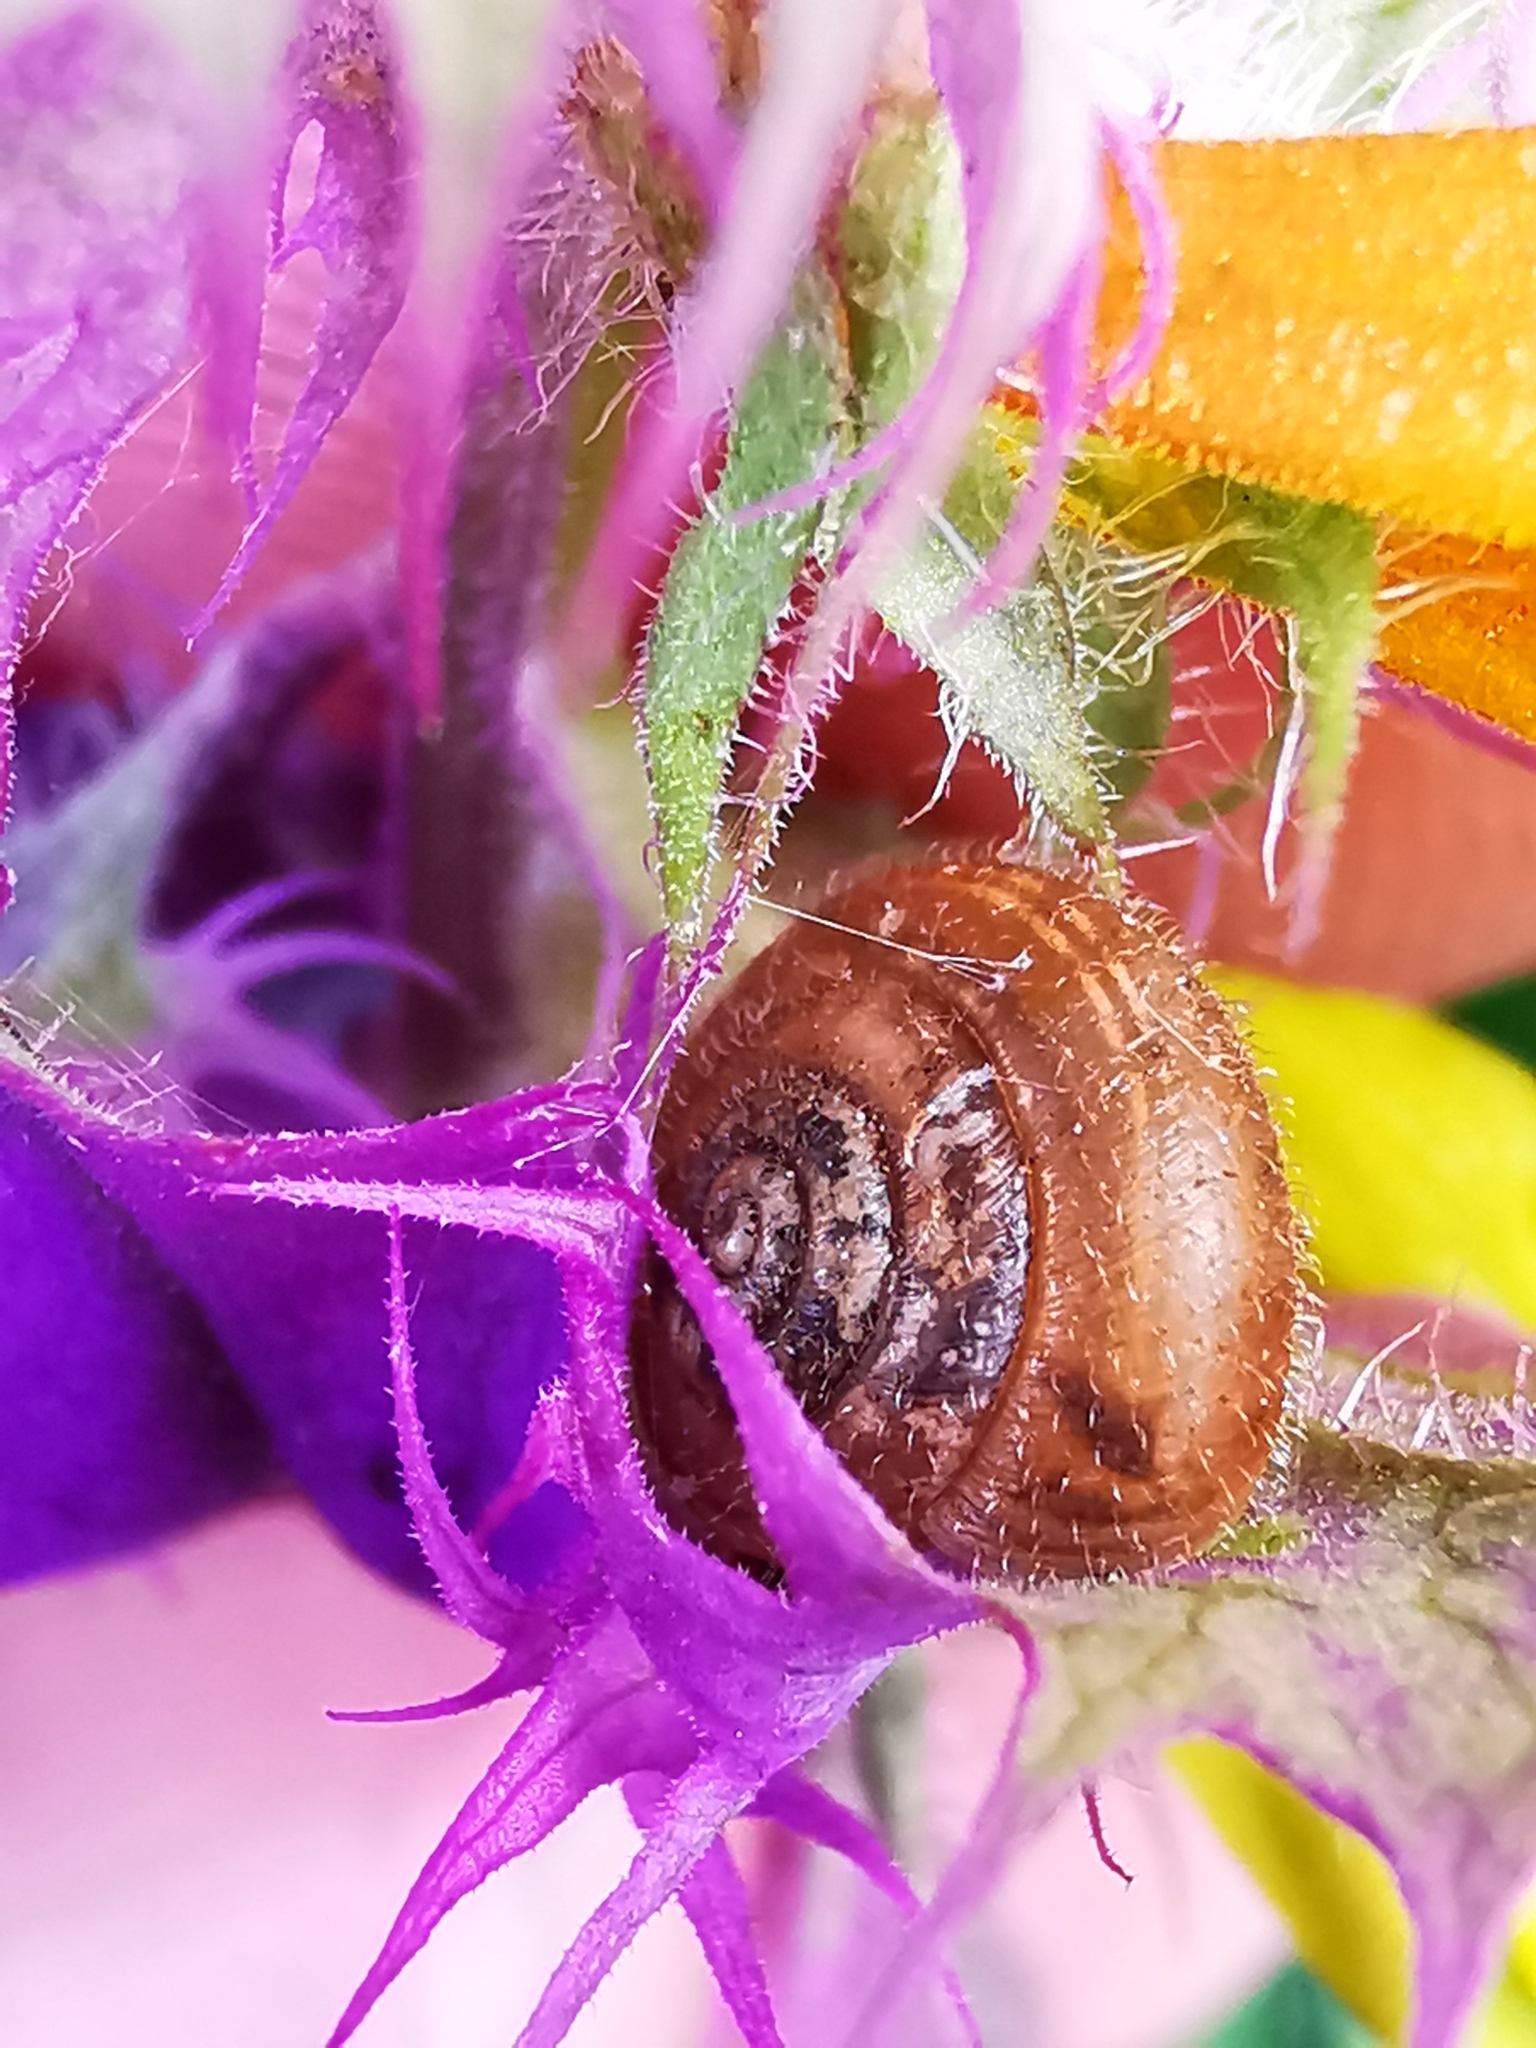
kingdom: Animalia
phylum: Mollusca
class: Gastropoda
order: Stylommatophora
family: Hygromiidae
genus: Trochulus
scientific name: Trochulus hispidus
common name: Hairy snail
